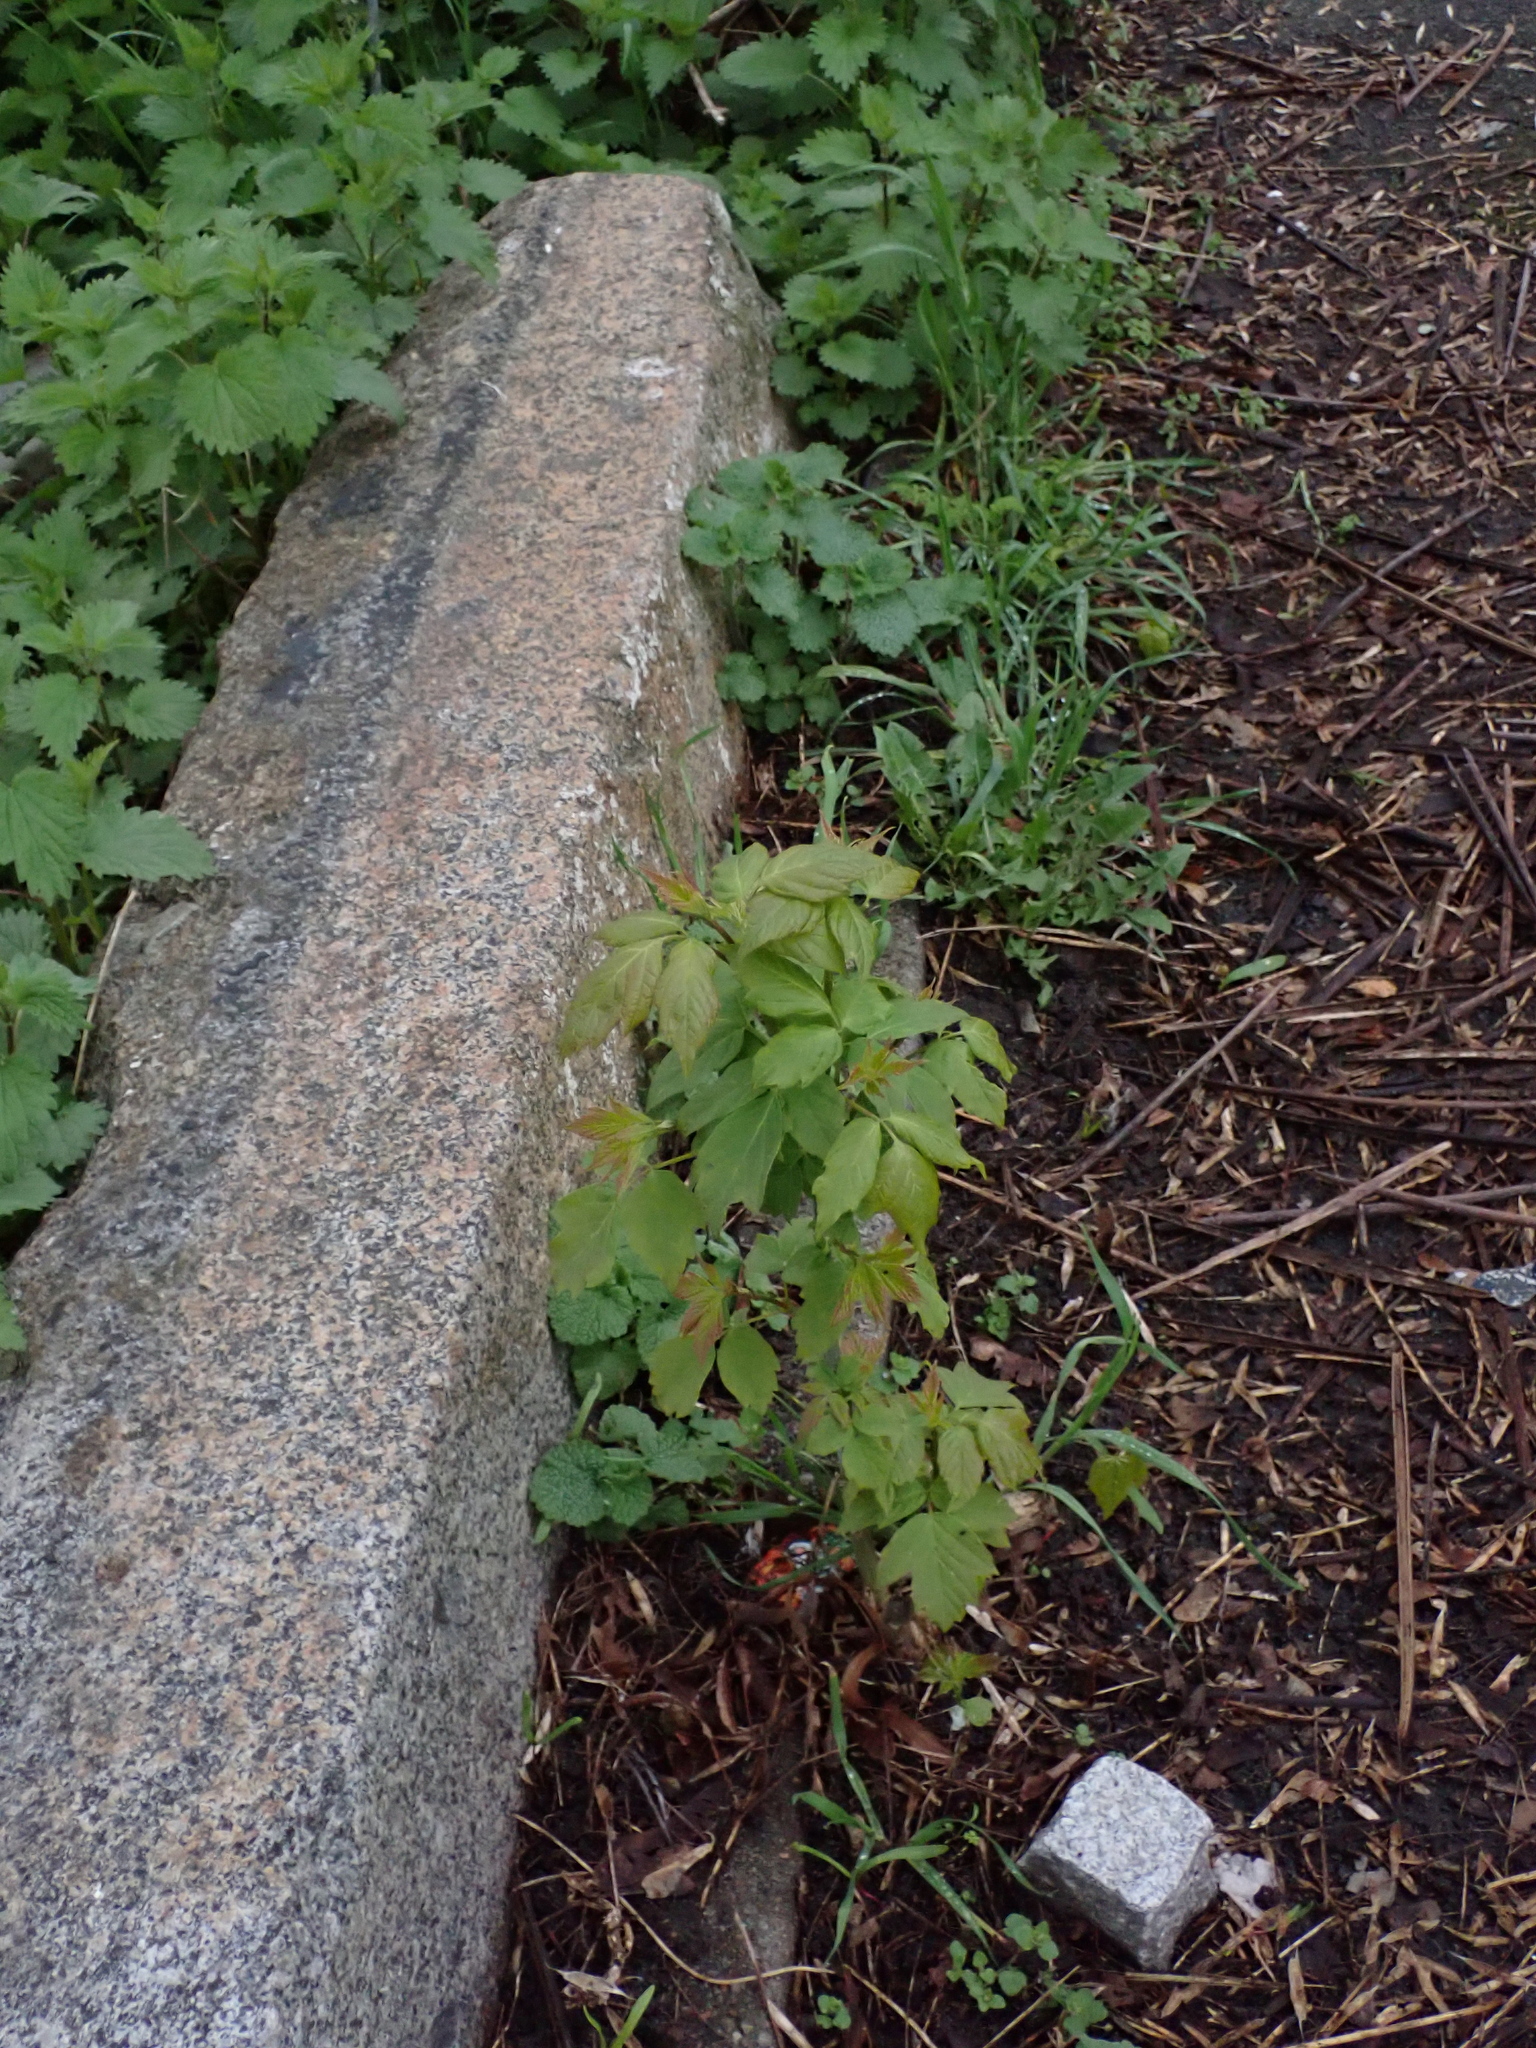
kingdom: Plantae
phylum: Tracheophyta
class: Magnoliopsida
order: Sapindales
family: Sapindaceae
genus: Acer
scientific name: Acer negundo
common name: Ashleaf maple
